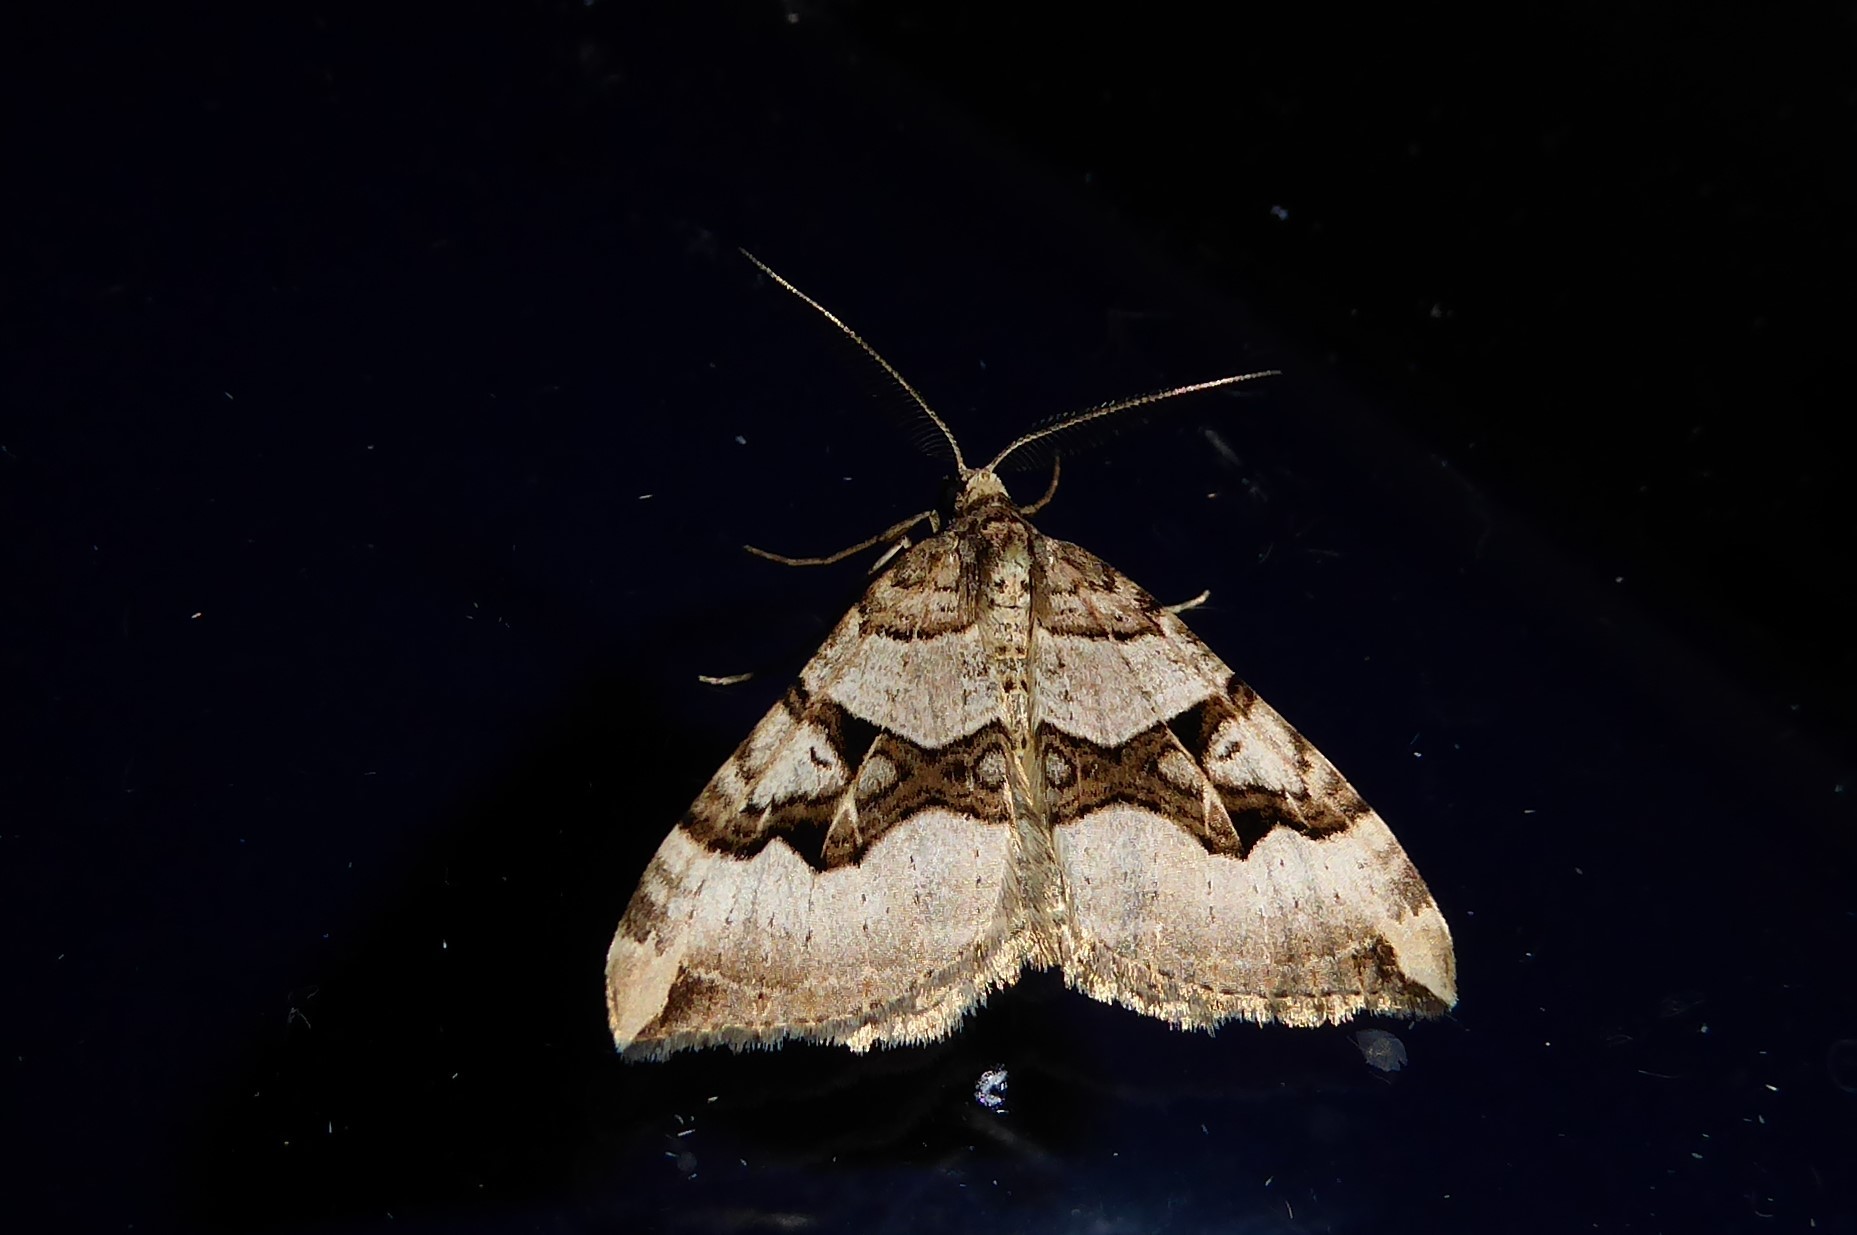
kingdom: Animalia
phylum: Arthropoda
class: Insecta
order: Lepidoptera
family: Geometridae
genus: Xanthorhoe
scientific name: Xanthorhoe semifissata
